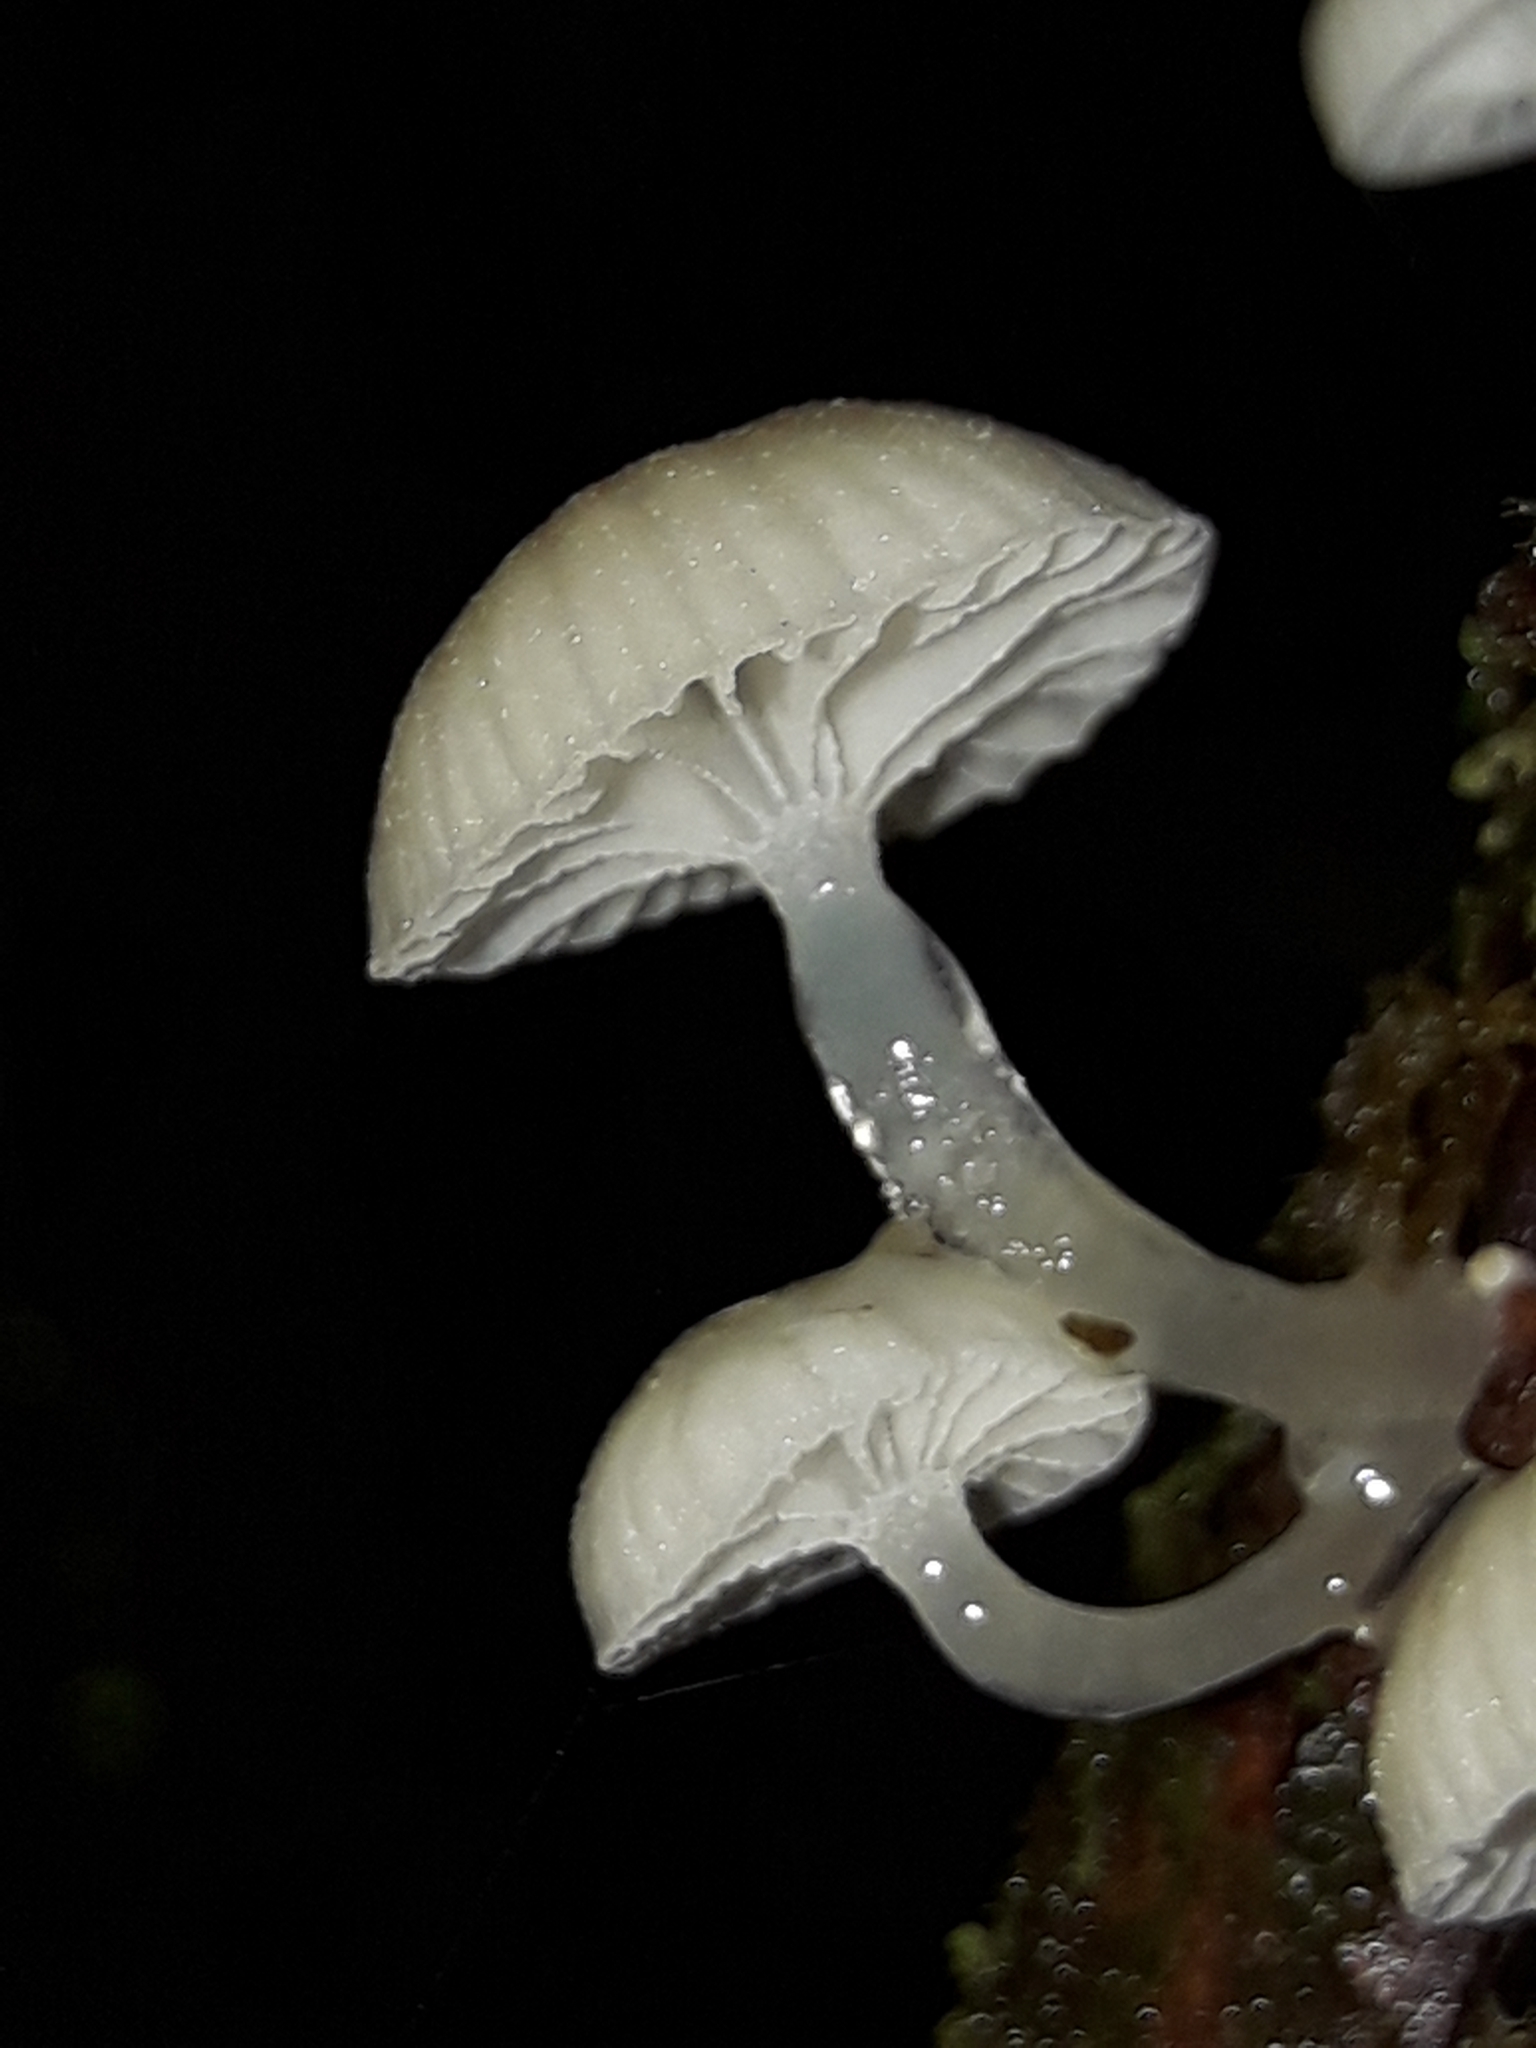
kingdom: Fungi
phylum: Basidiomycota
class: Agaricomycetes
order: Agaricales
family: Mycenaceae
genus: Roridomyces
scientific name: Roridomyces austrororidus
